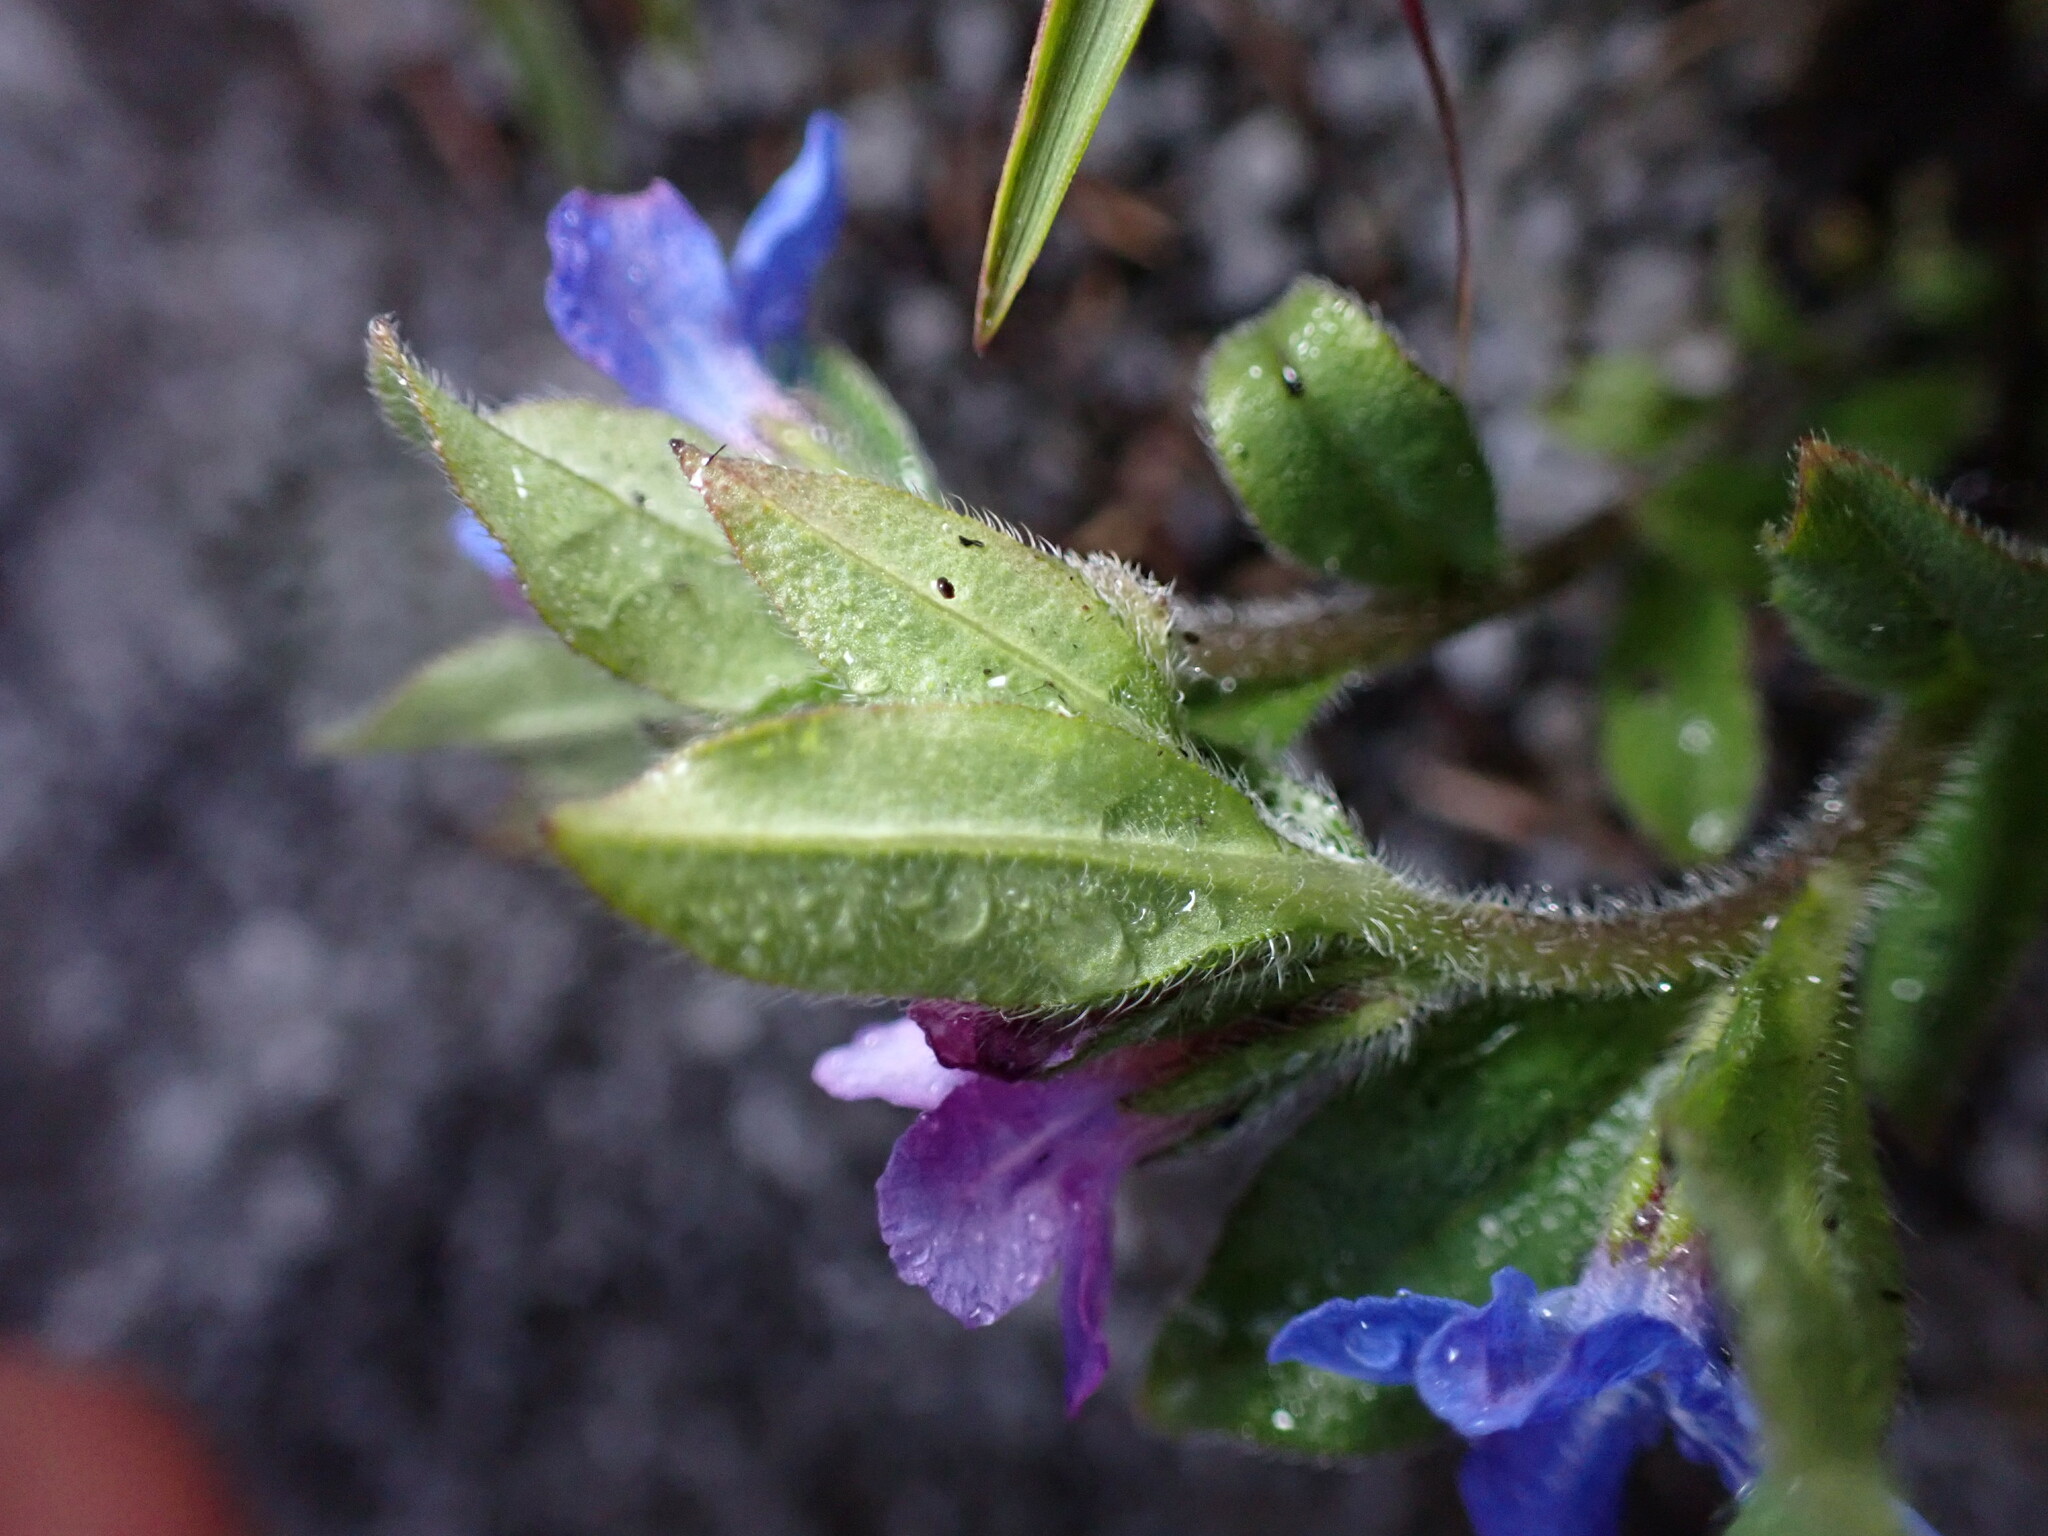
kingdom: Plantae
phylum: Tracheophyta
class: Magnoliopsida
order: Boraginales
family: Boraginaceae
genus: Aegonychon
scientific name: Aegonychon zollingeri
